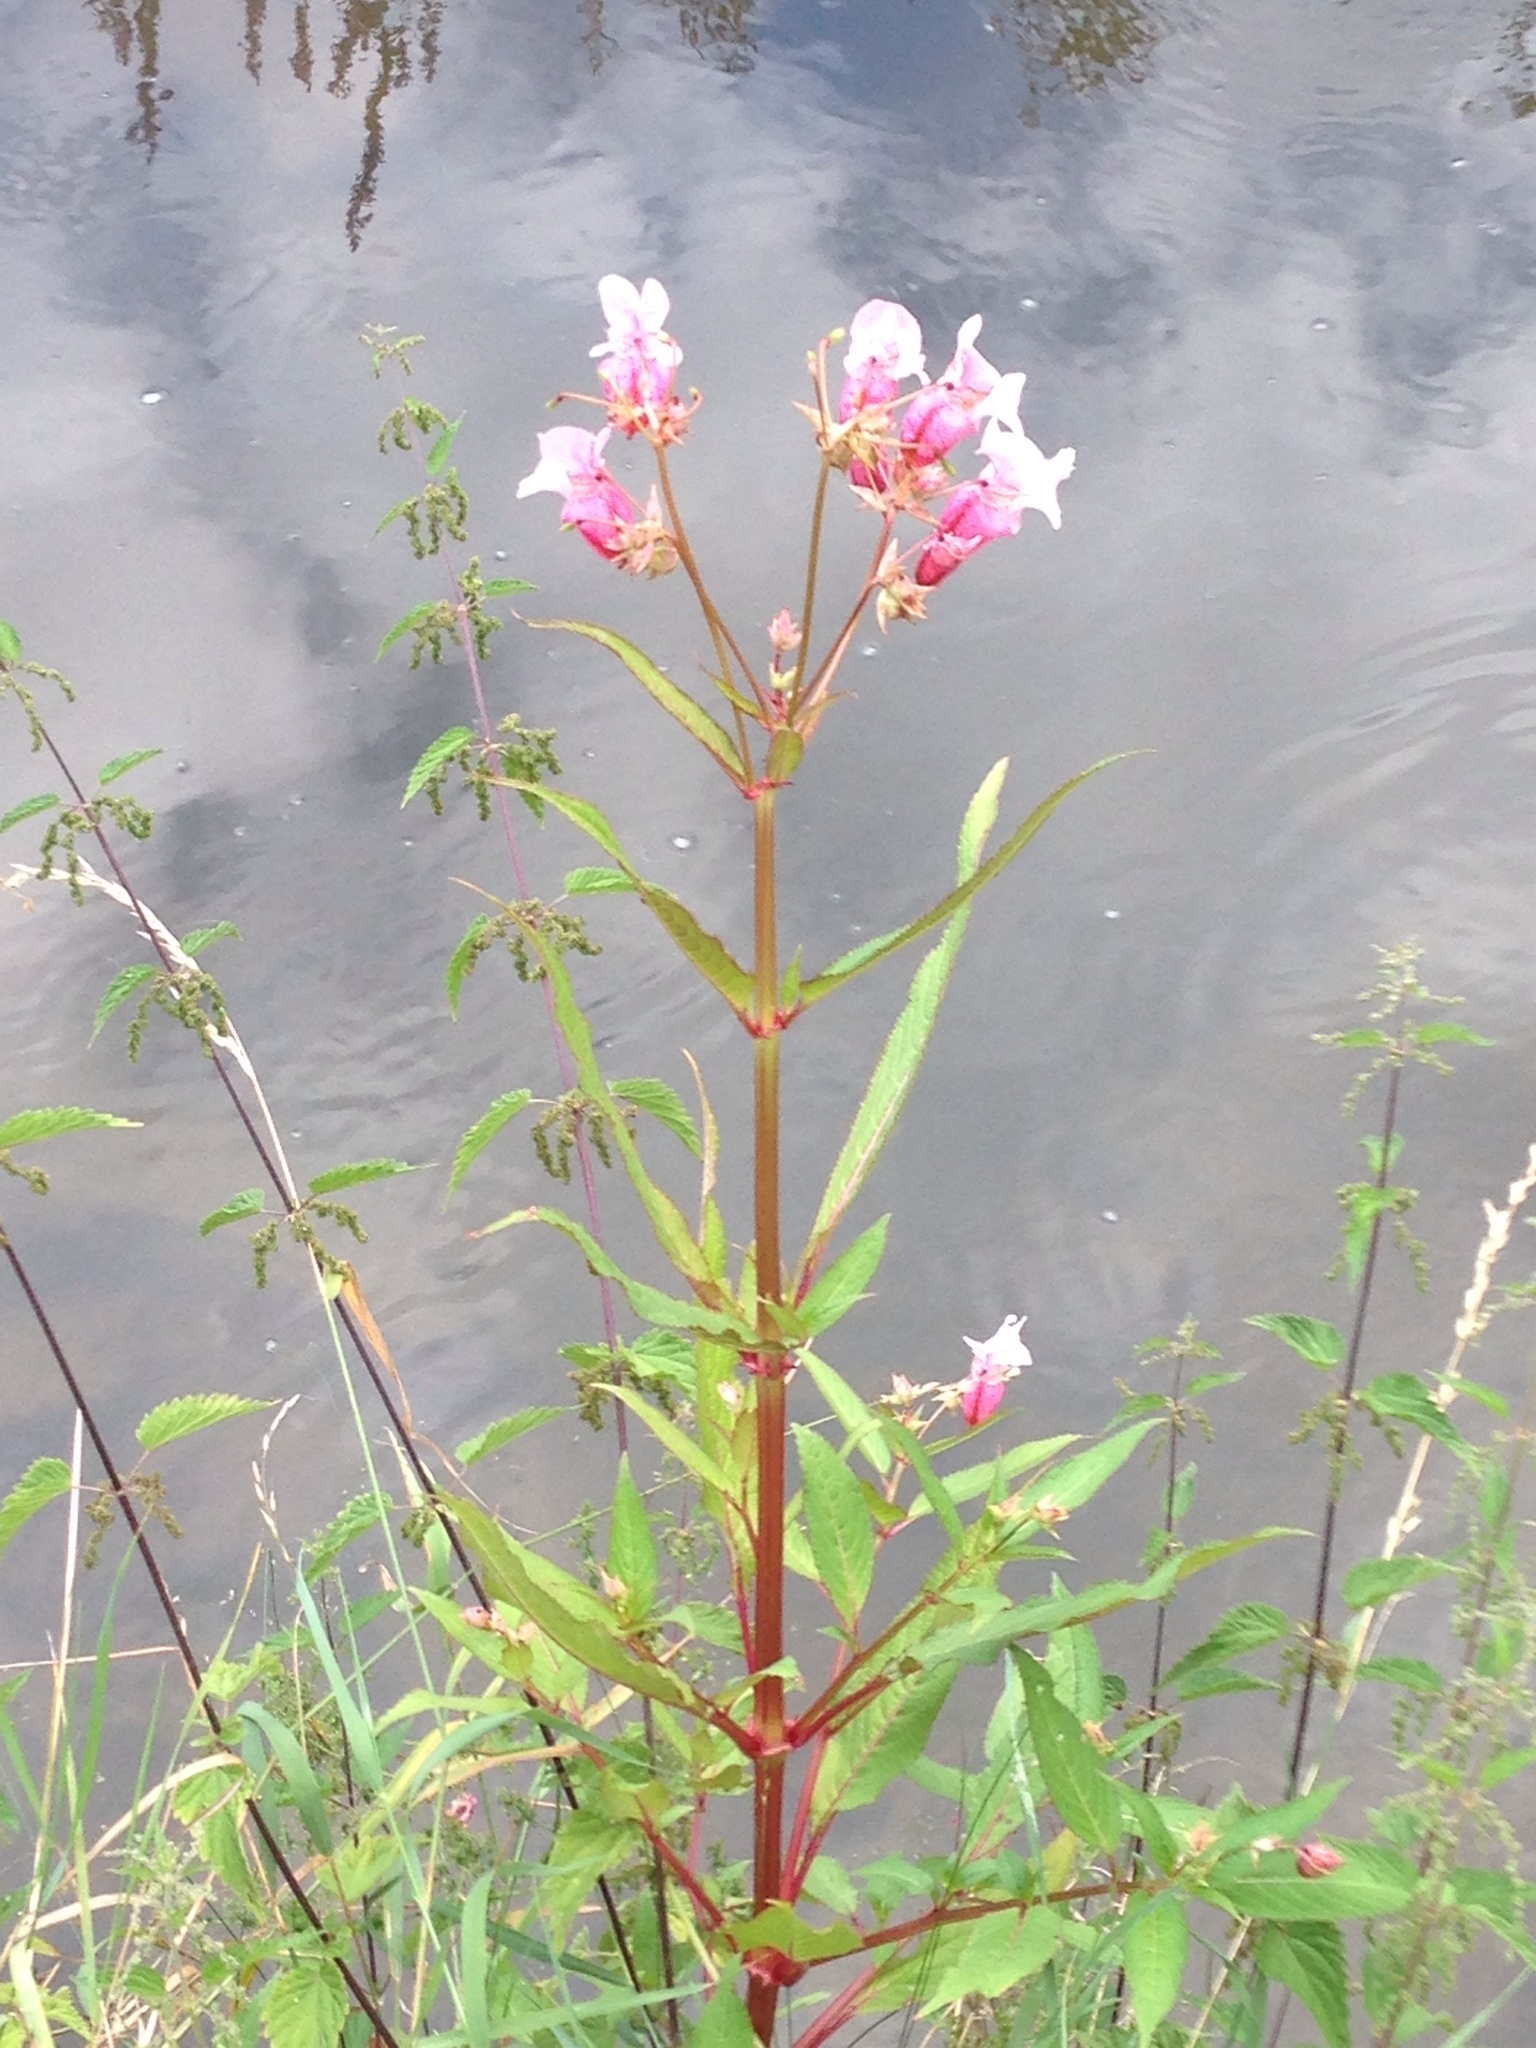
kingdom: Plantae
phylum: Tracheophyta
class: Magnoliopsida
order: Ericales
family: Balsaminaceae
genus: Impatiens
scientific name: Impatiens glandulifera
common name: Himalayan balsam
